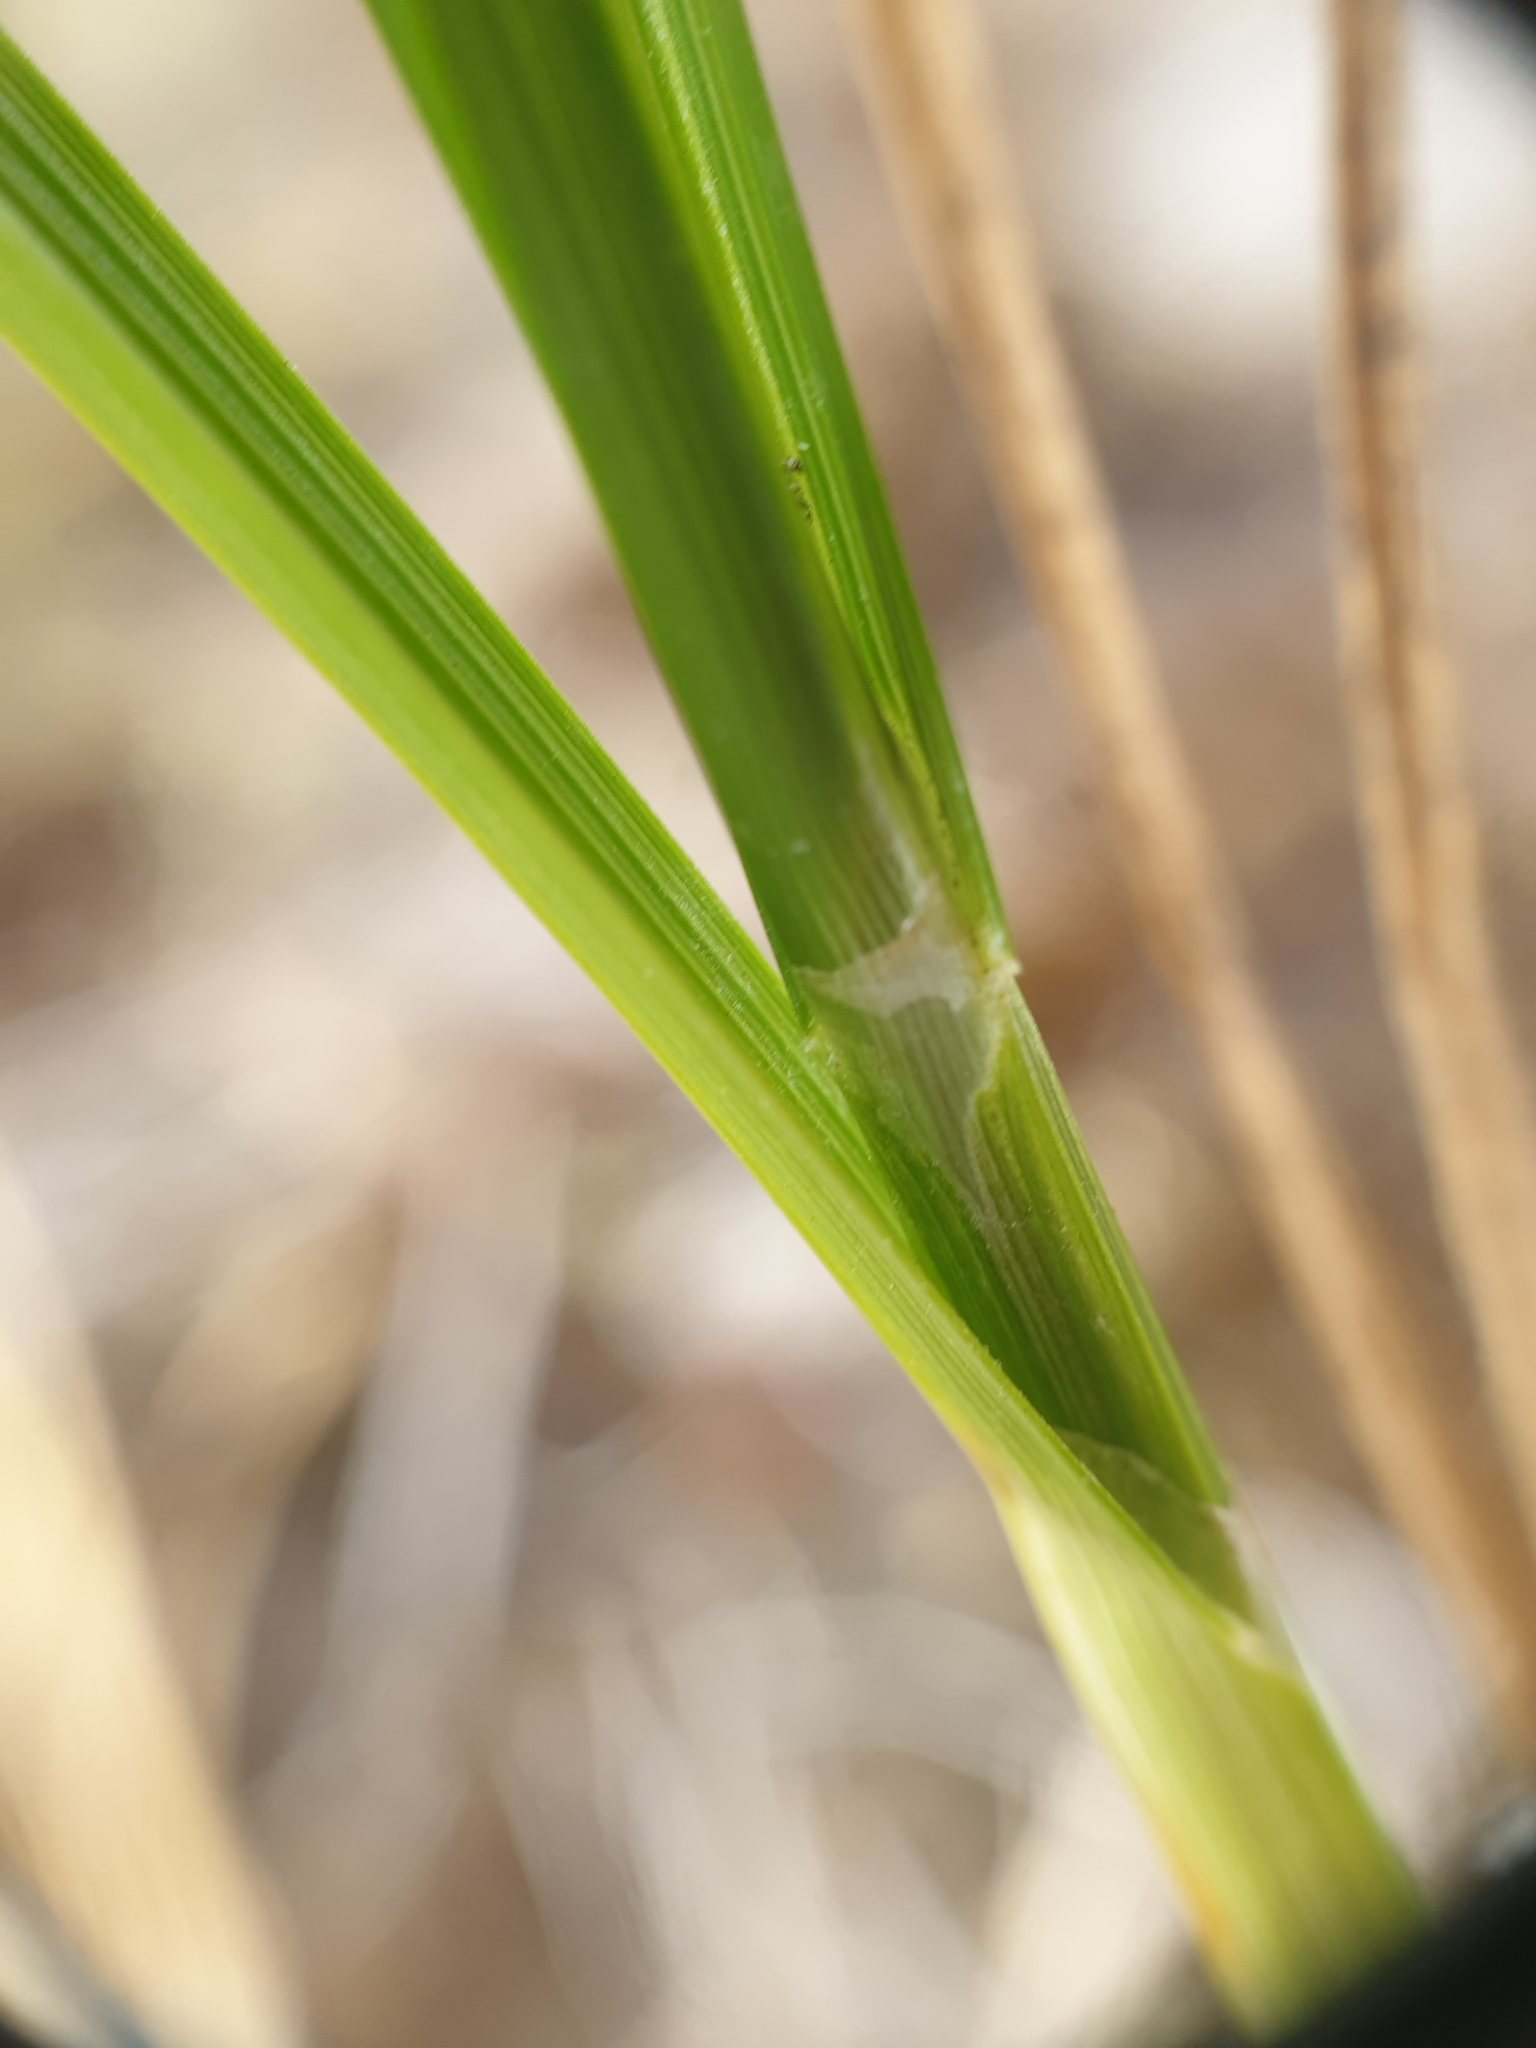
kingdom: Plantae
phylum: Tracheophyta
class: Liliopsida
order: Poales
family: Cyperaceae
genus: Carex
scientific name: Carex cumulata
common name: Accumulating sedge
